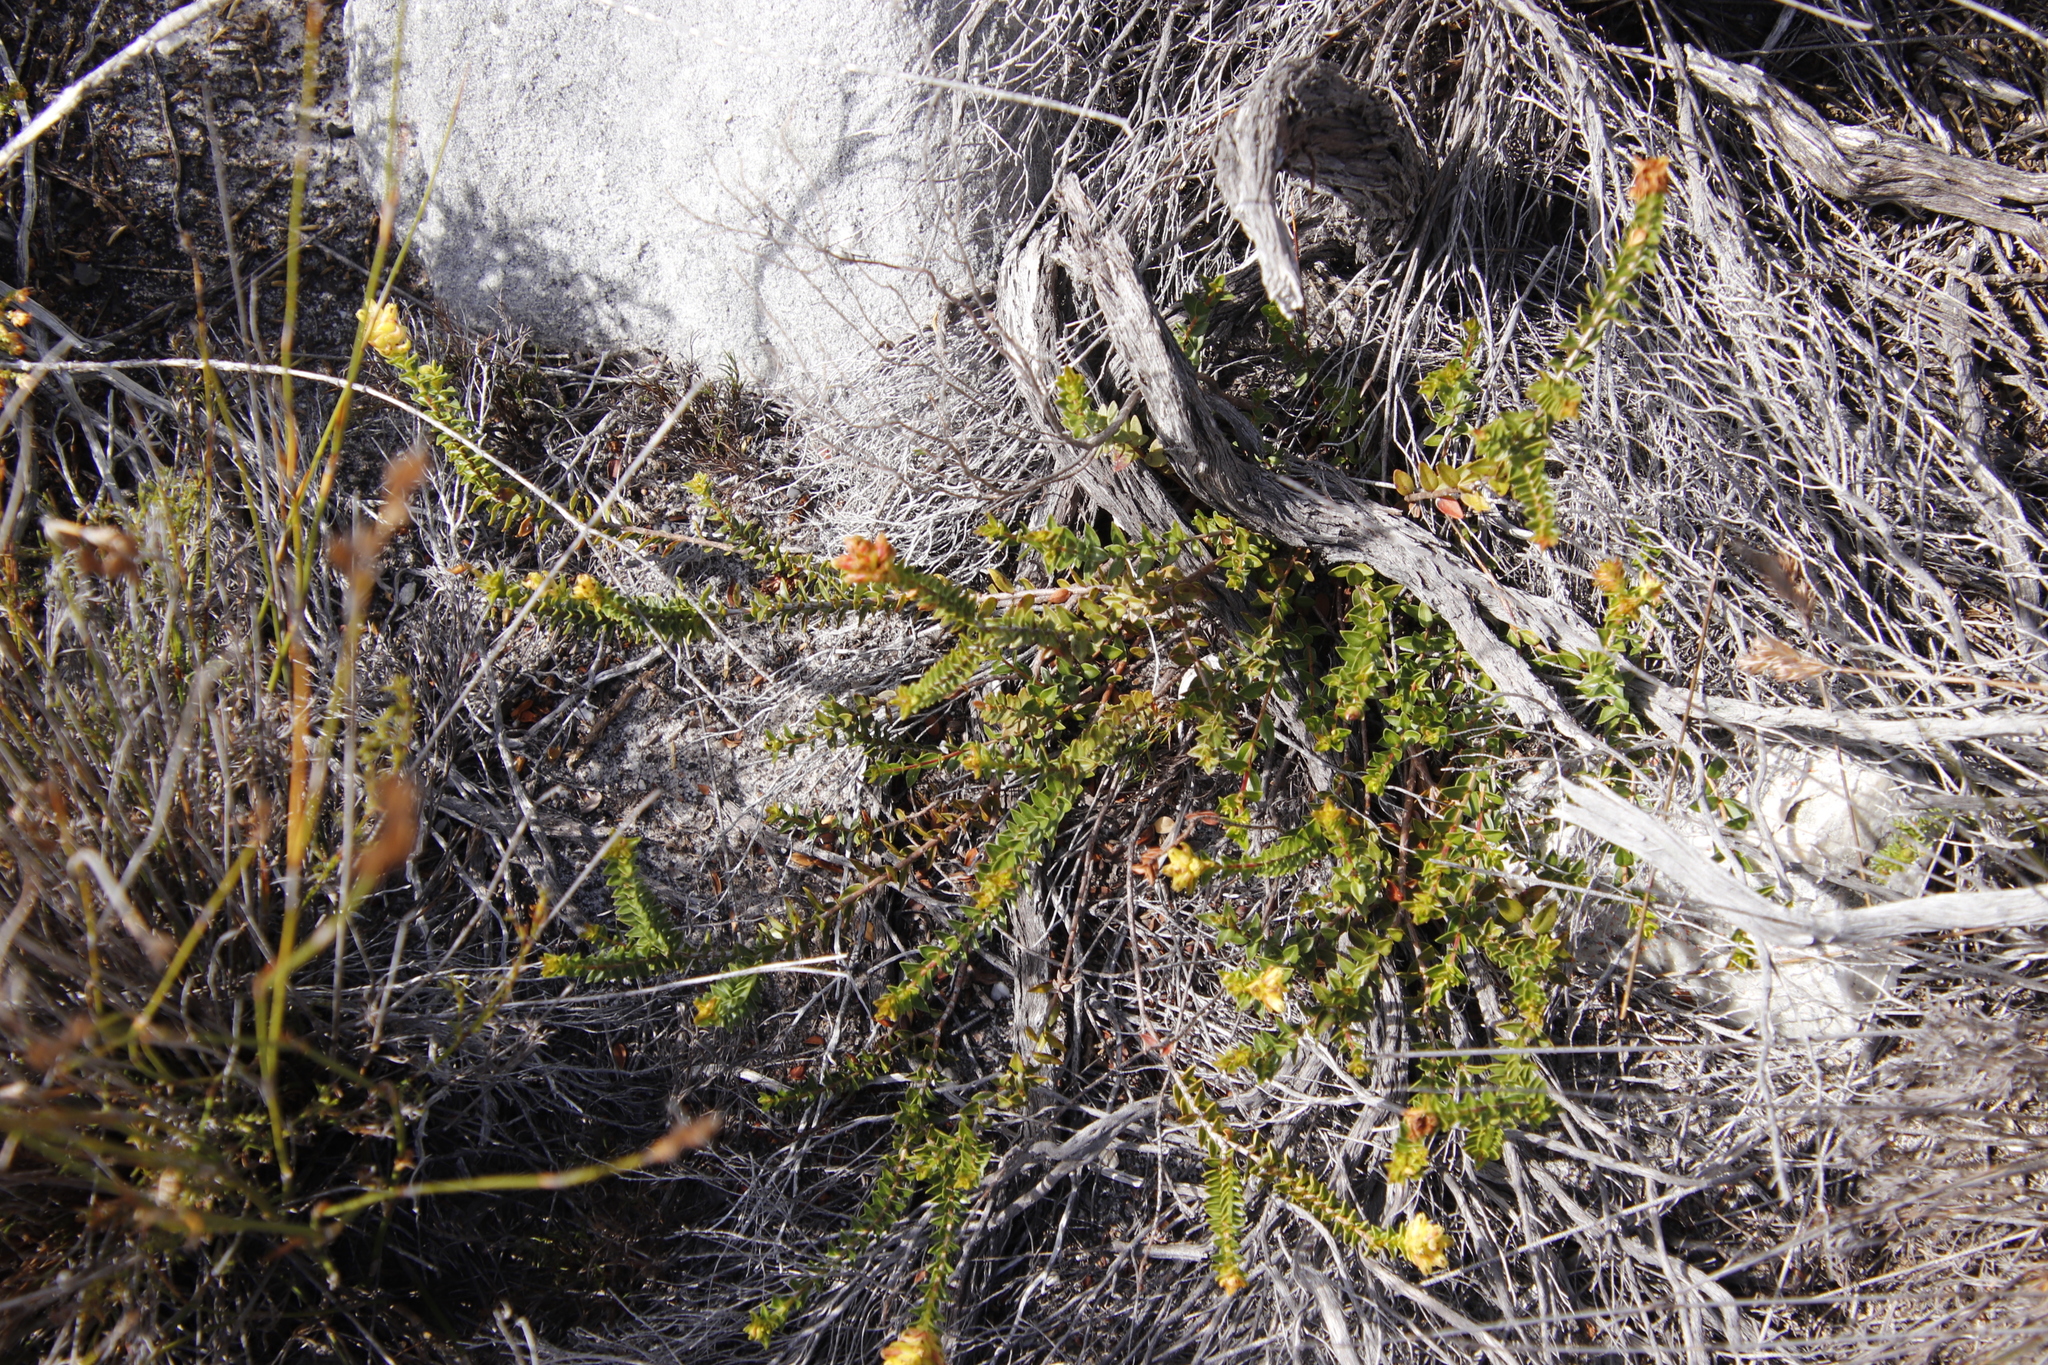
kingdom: Plantae
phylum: Tracheophyta
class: Magnoliopsida
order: Myrtales
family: Penaeaceae
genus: Penaea
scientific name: Penaea mucronata
